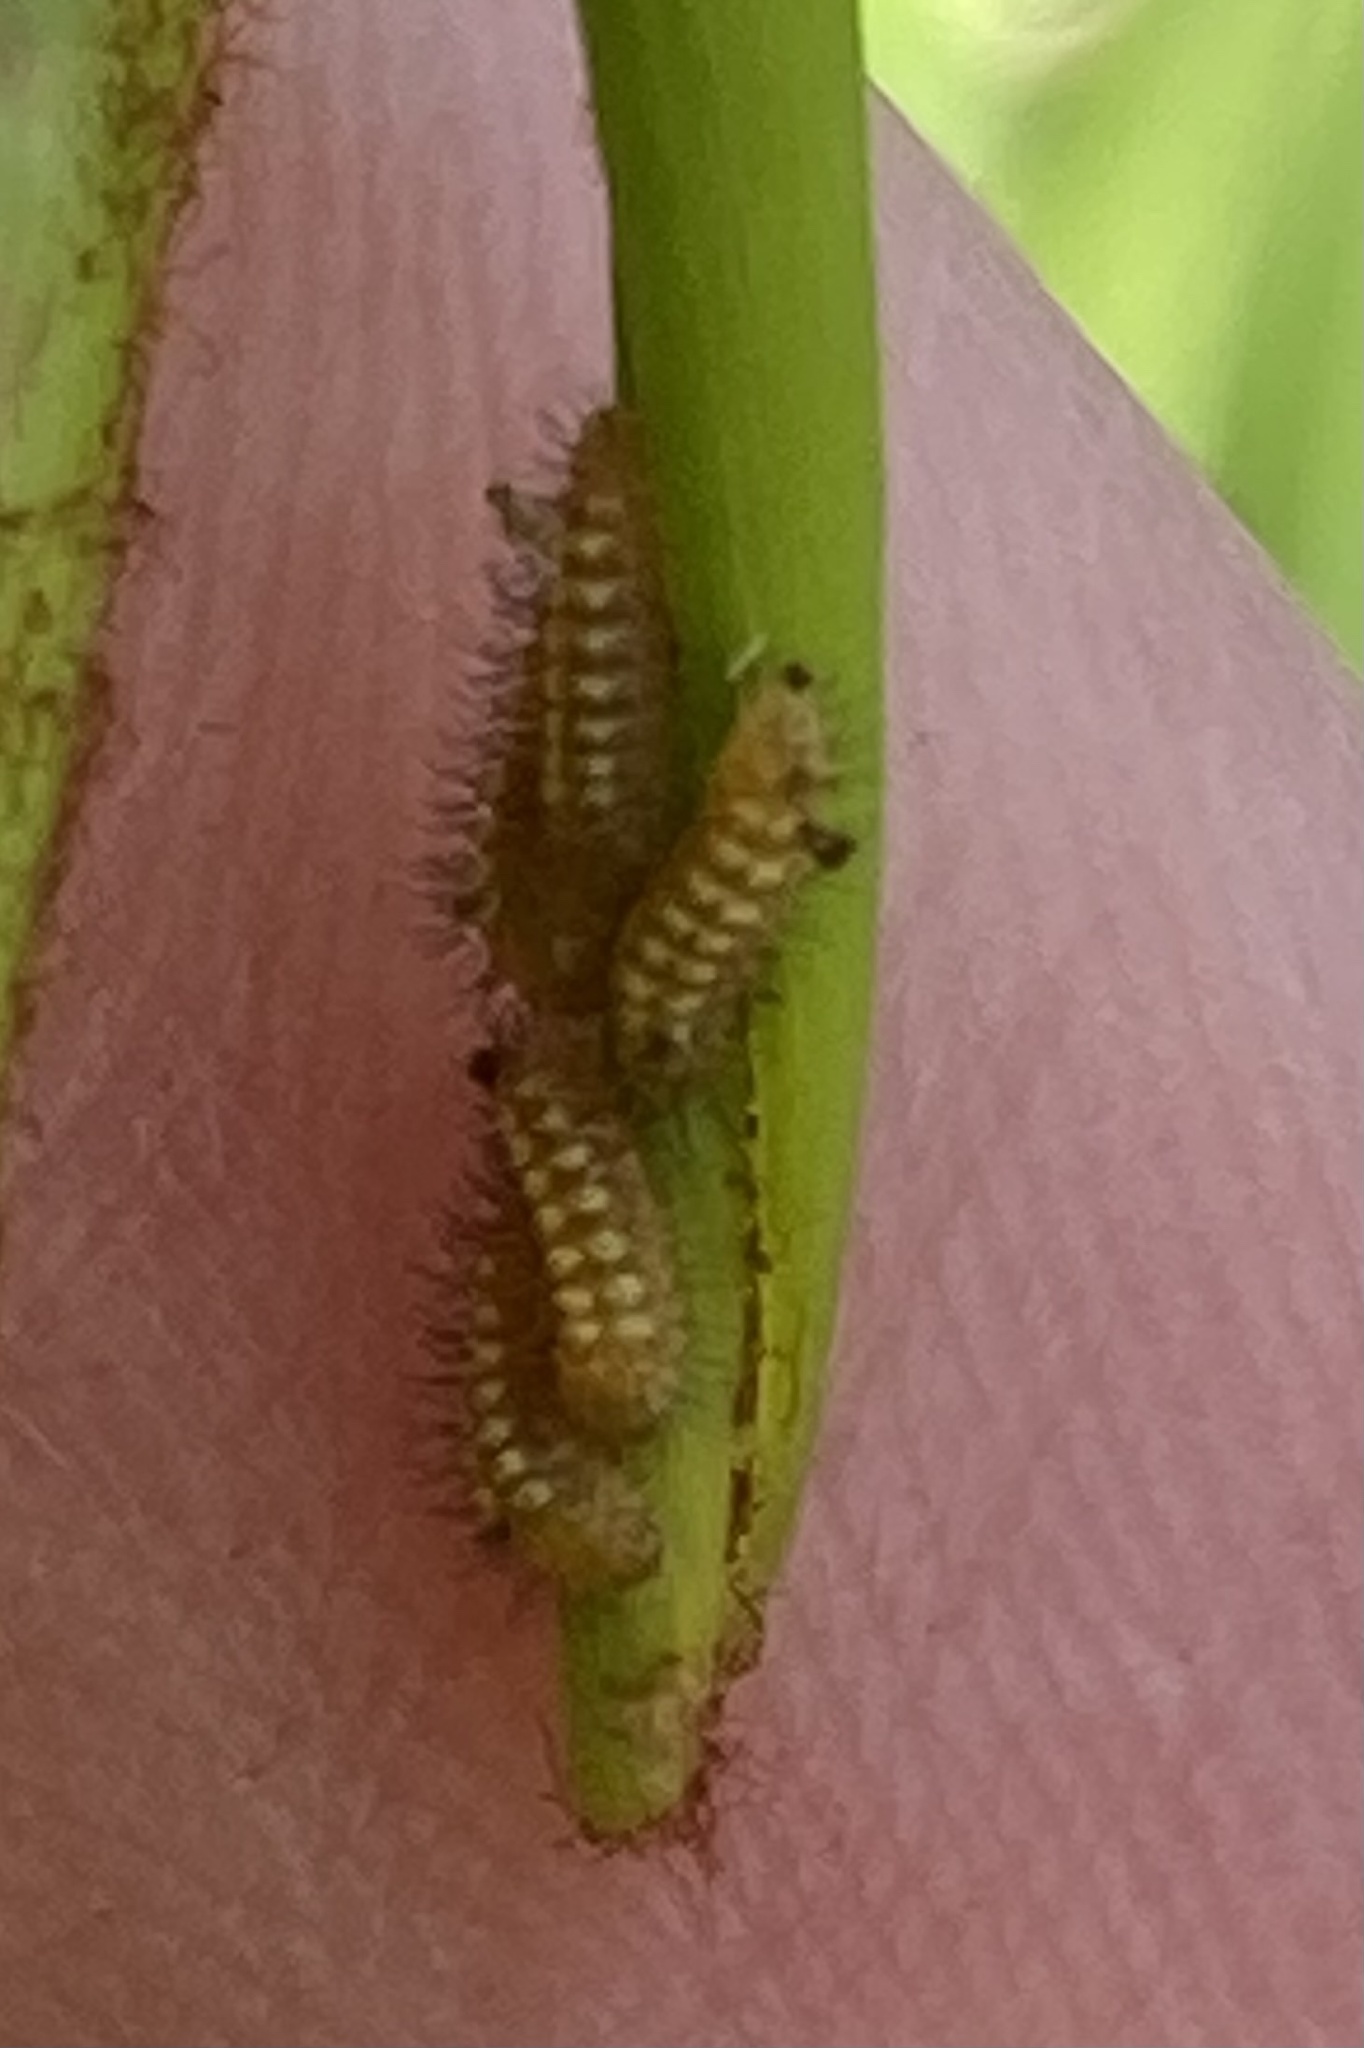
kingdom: Animalia
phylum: Arthropoda
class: Insecta
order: Lepidoptera
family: Lycaenidae
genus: Eumaeus
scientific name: Eumaeus atala
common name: Atala
